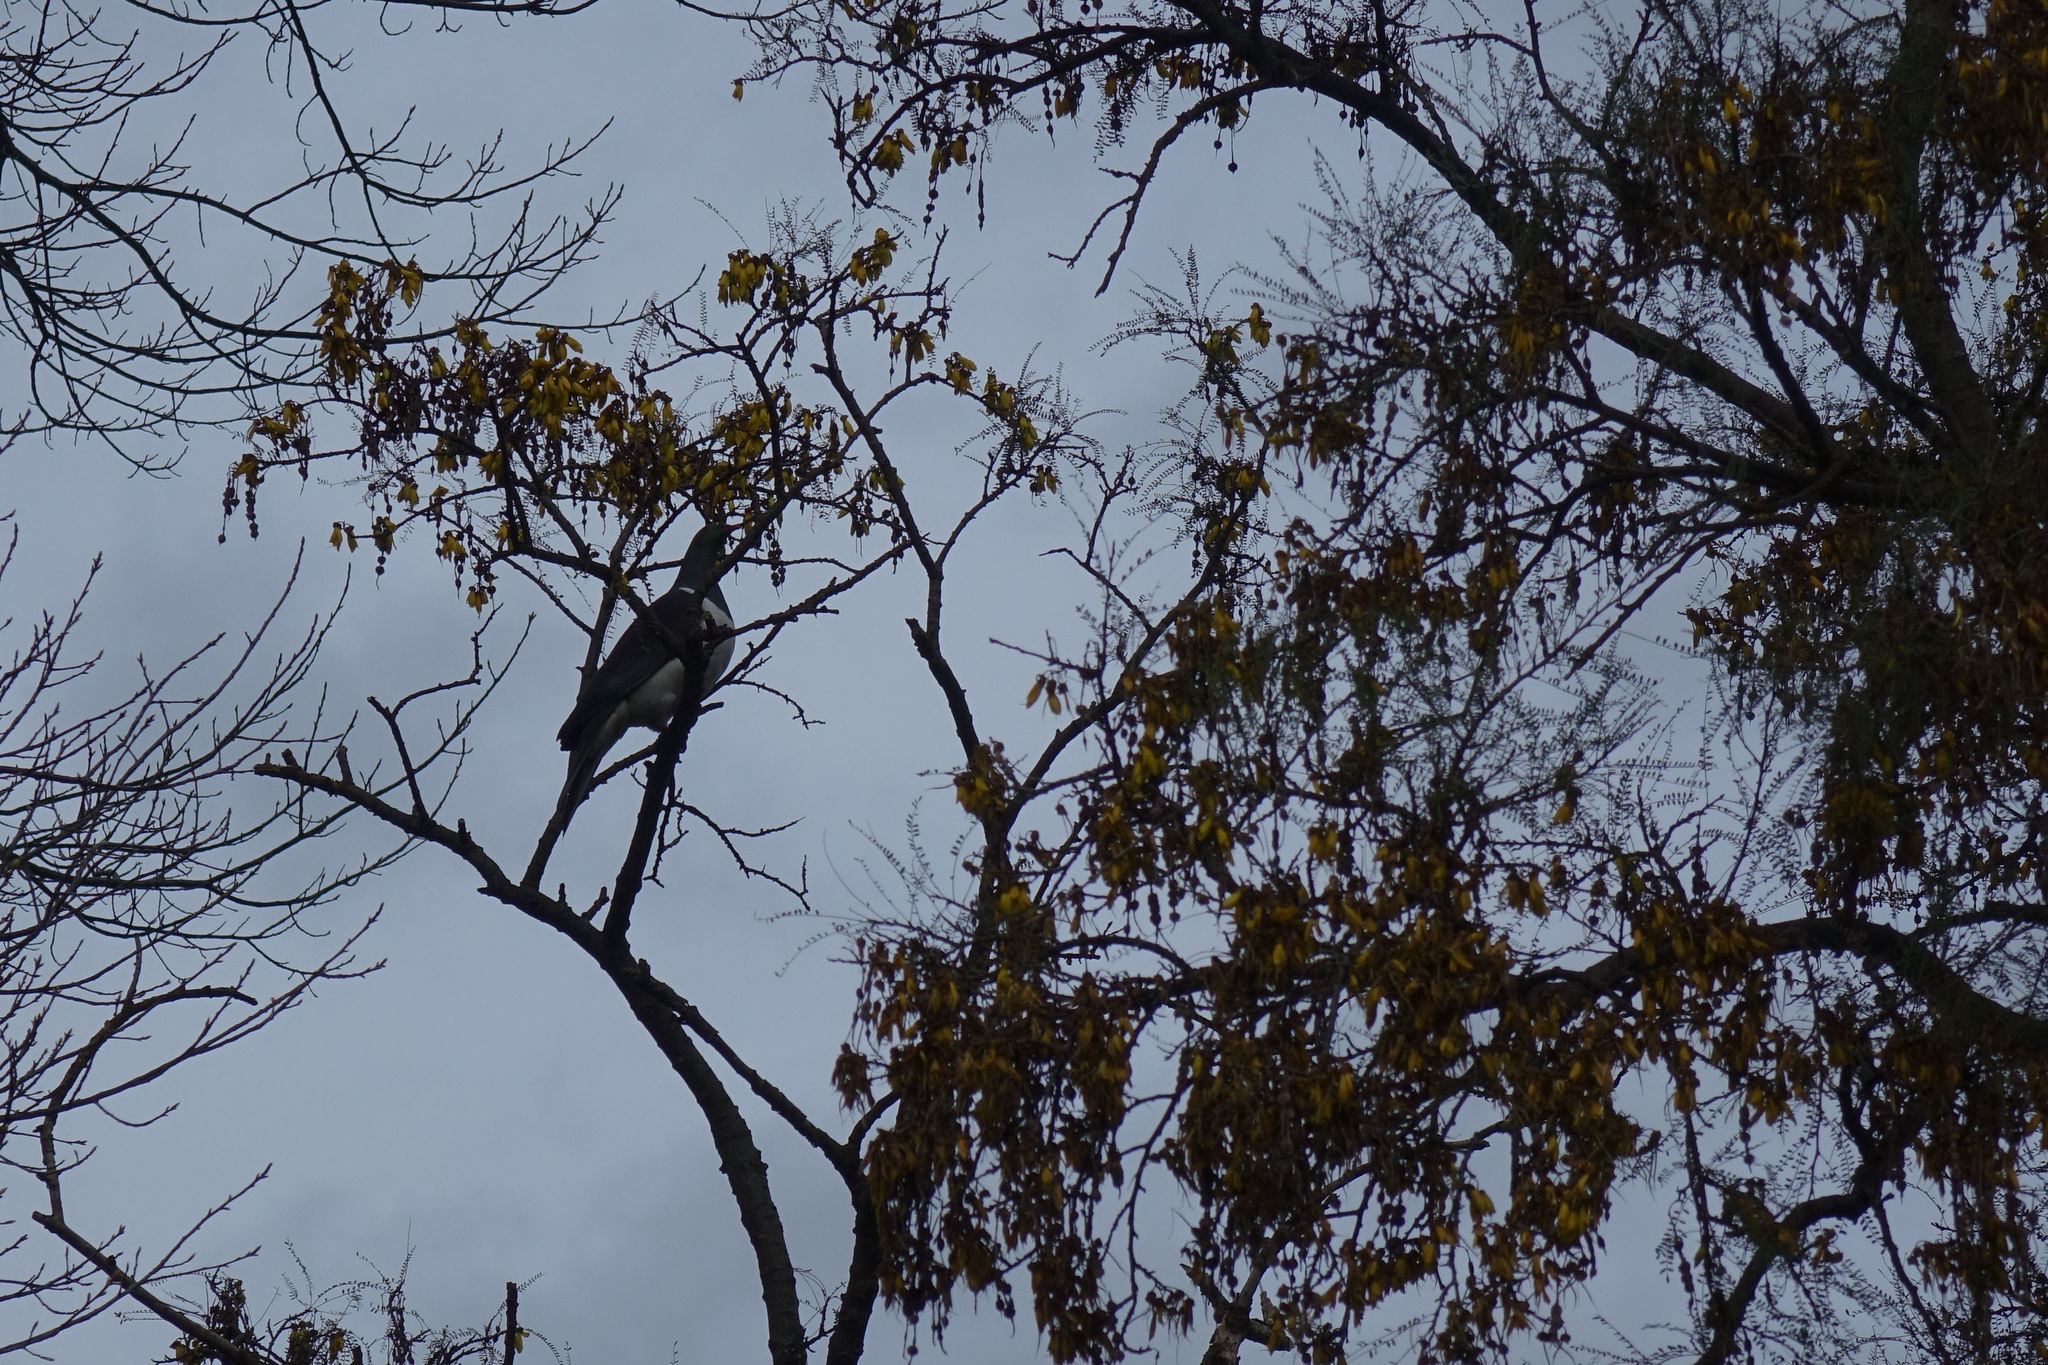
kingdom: Animalia
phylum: Chordata
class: Aves
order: Columbiformes
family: Columbidae
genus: Hemiphaga
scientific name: Hemiphaga novaeseelandiae
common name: New zealand pigeon
